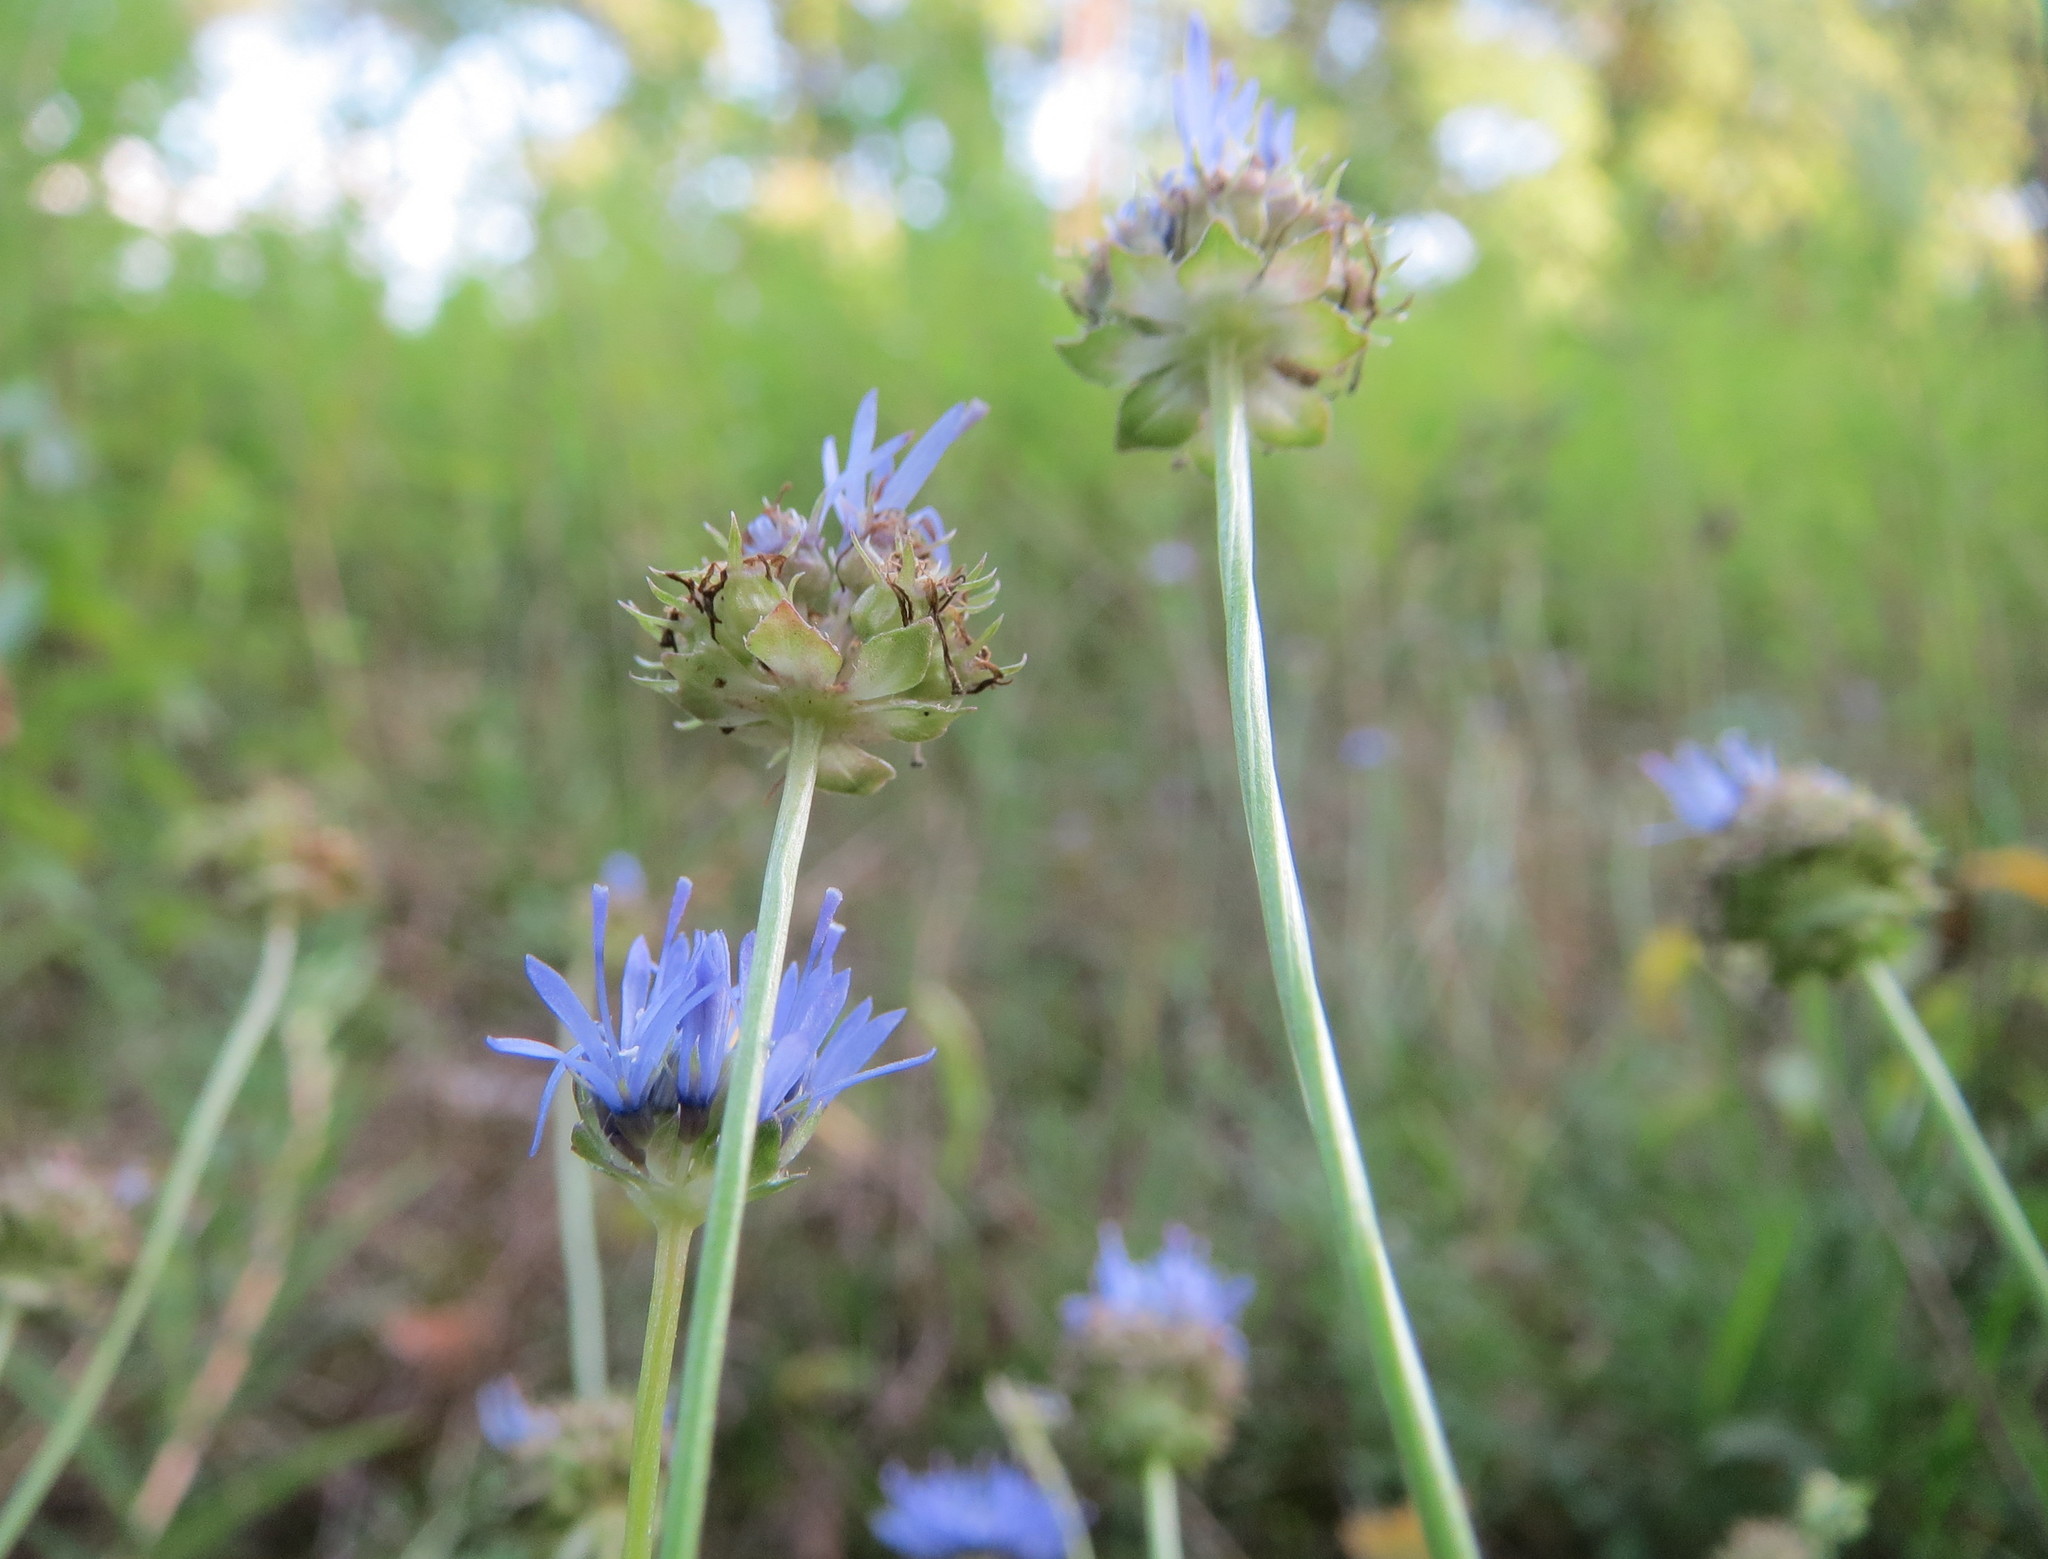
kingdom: Plantae
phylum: Tracheophyta
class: Magnoliopsida
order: Asterales
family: Campanulaceae
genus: Jasione
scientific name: Jasione montana
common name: Sheep's-bit
